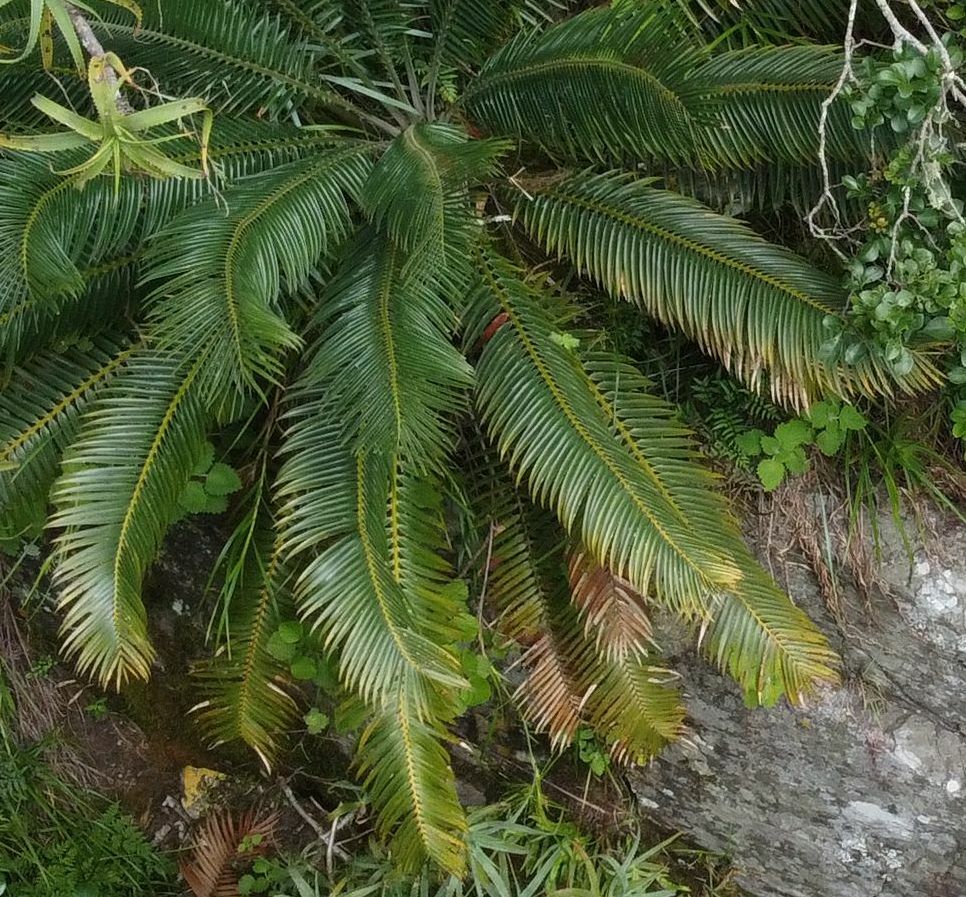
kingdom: Plantae
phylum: Tracheophyta
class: Cycadopsida
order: Cycadales
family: Zamiaceae
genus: Encephalartos
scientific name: Encephalartos paucidentatus
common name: Barberton cycad
